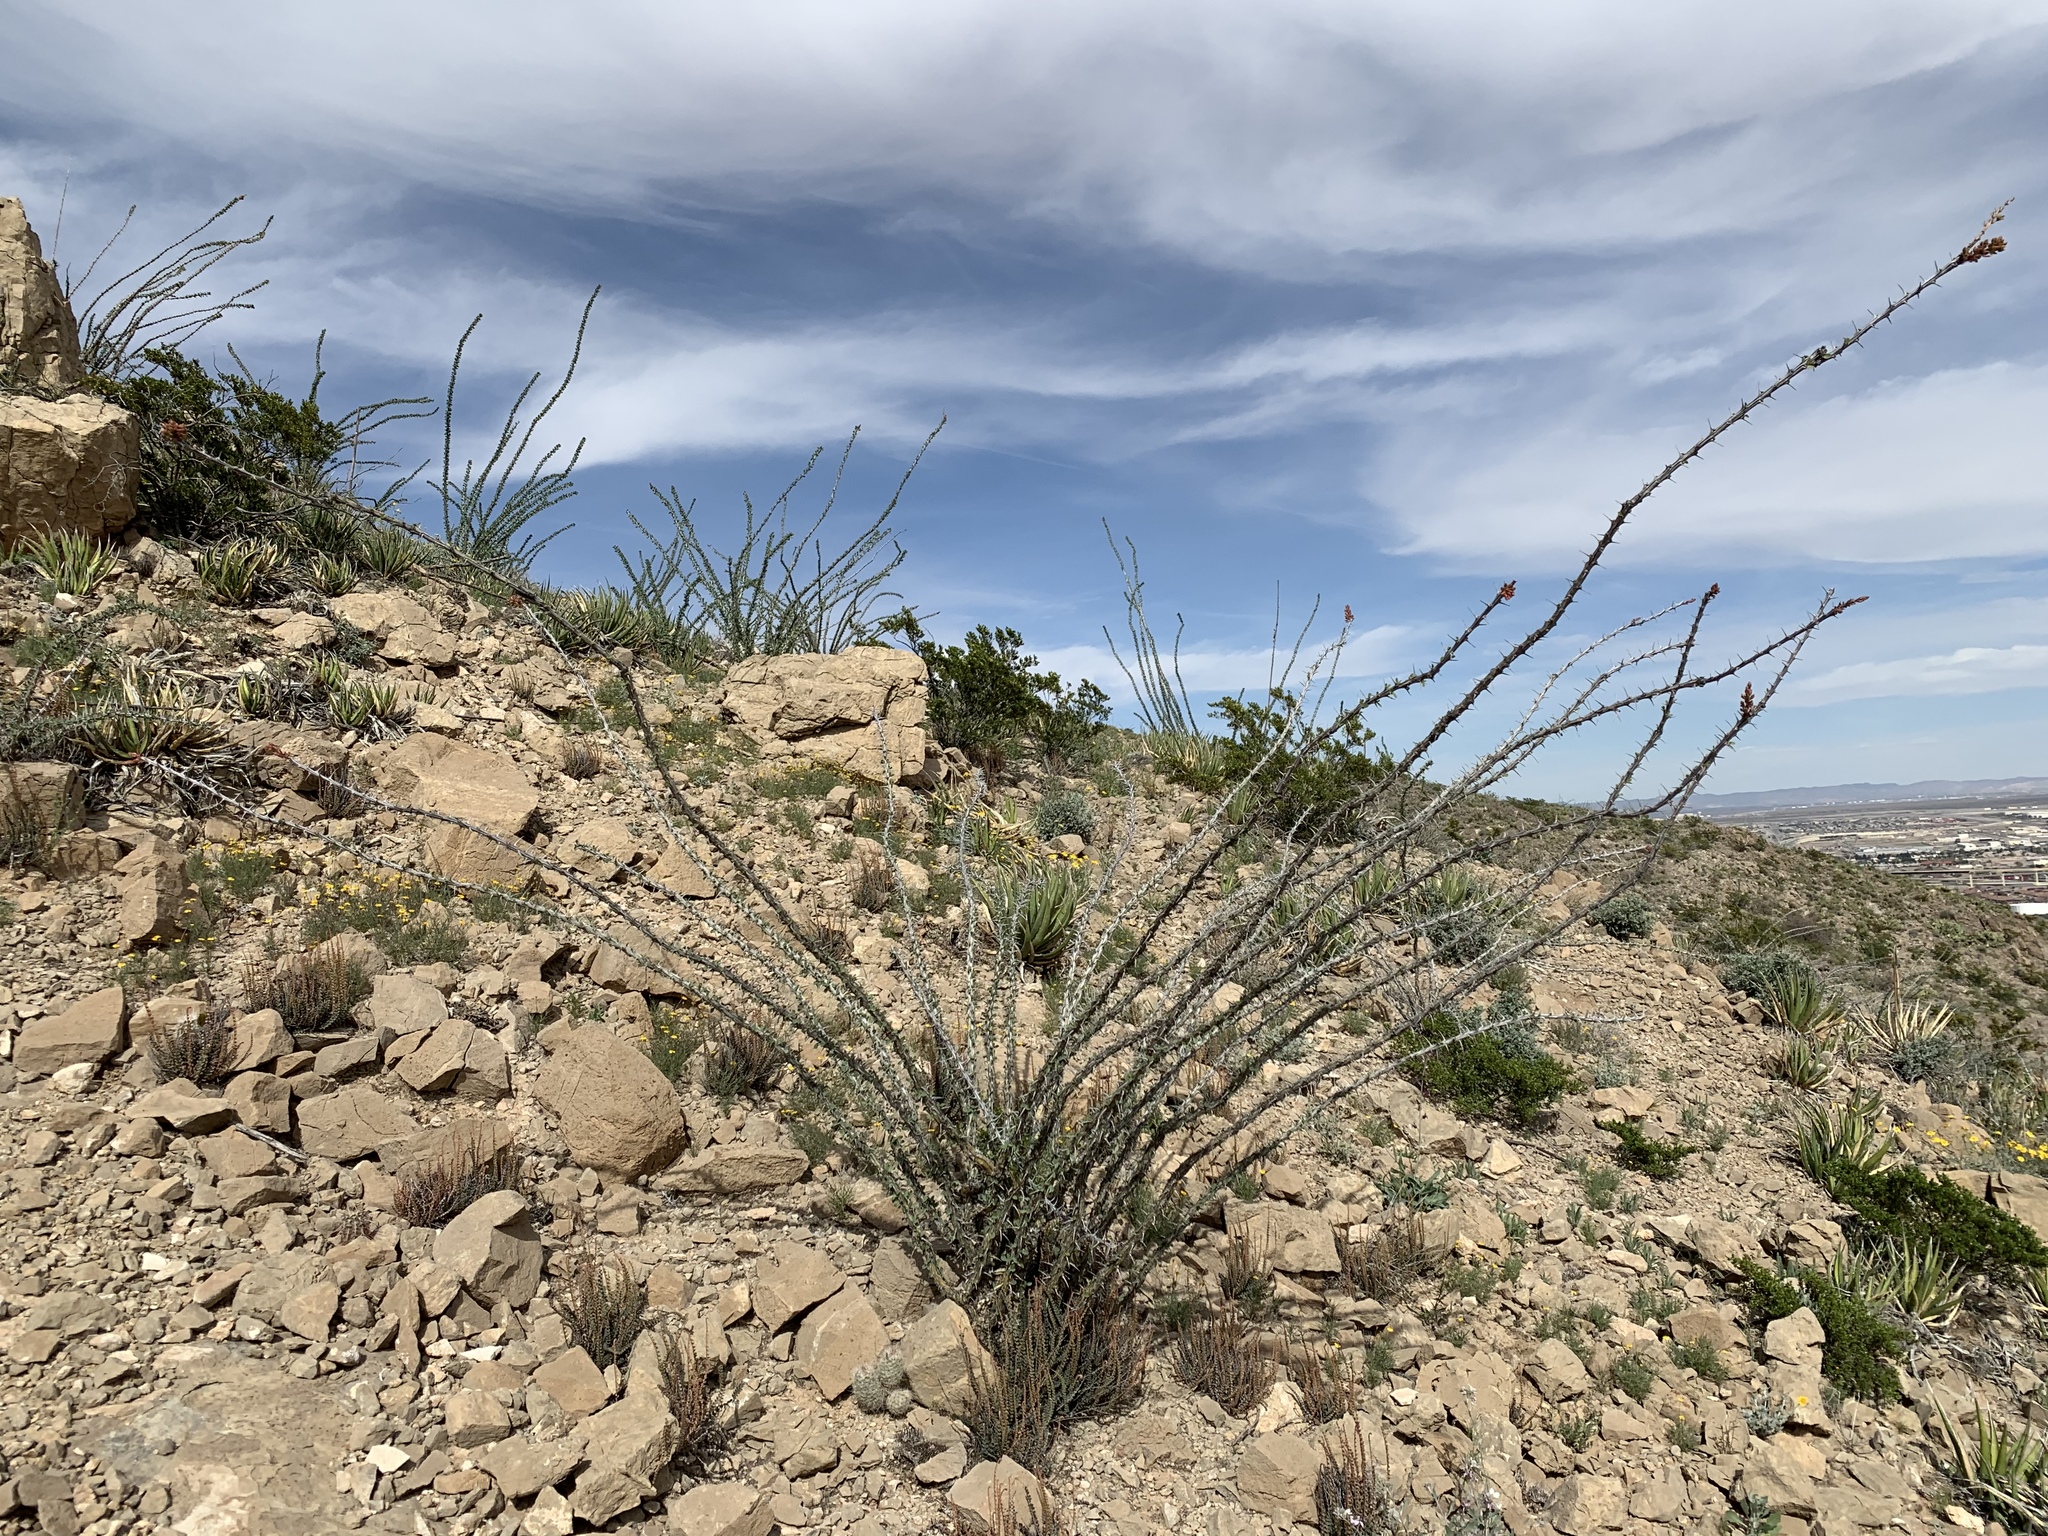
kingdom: Plantae
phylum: Tracheophyta
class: Magnoliopsida
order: Ericales
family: Fouquieriaceae
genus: Fouquieria
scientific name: Fouquieria splendens
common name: Vine-cactus
